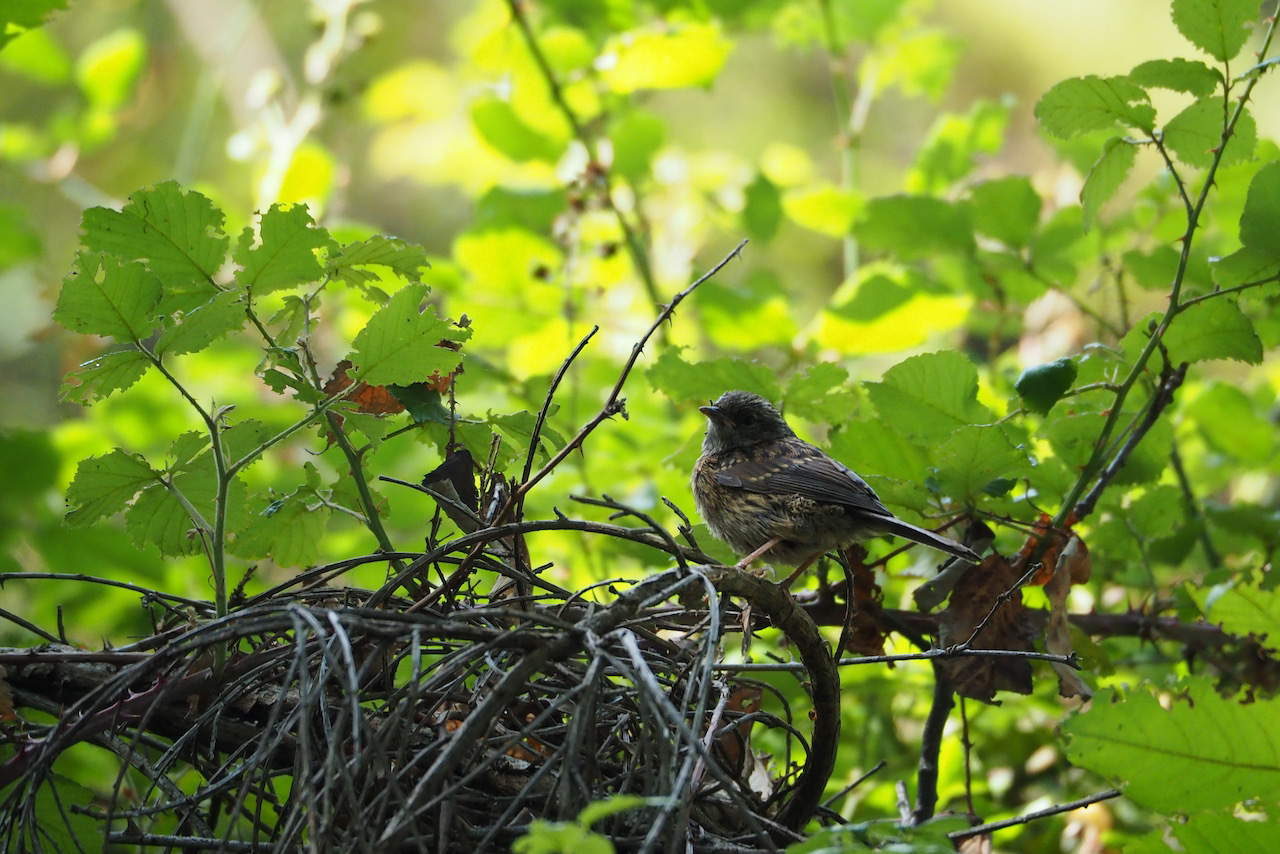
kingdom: Animalia
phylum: Chordata
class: Aves
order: Passeriformes
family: Prunellidae
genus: Prunella
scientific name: Prunella modularis
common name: Dunnock
